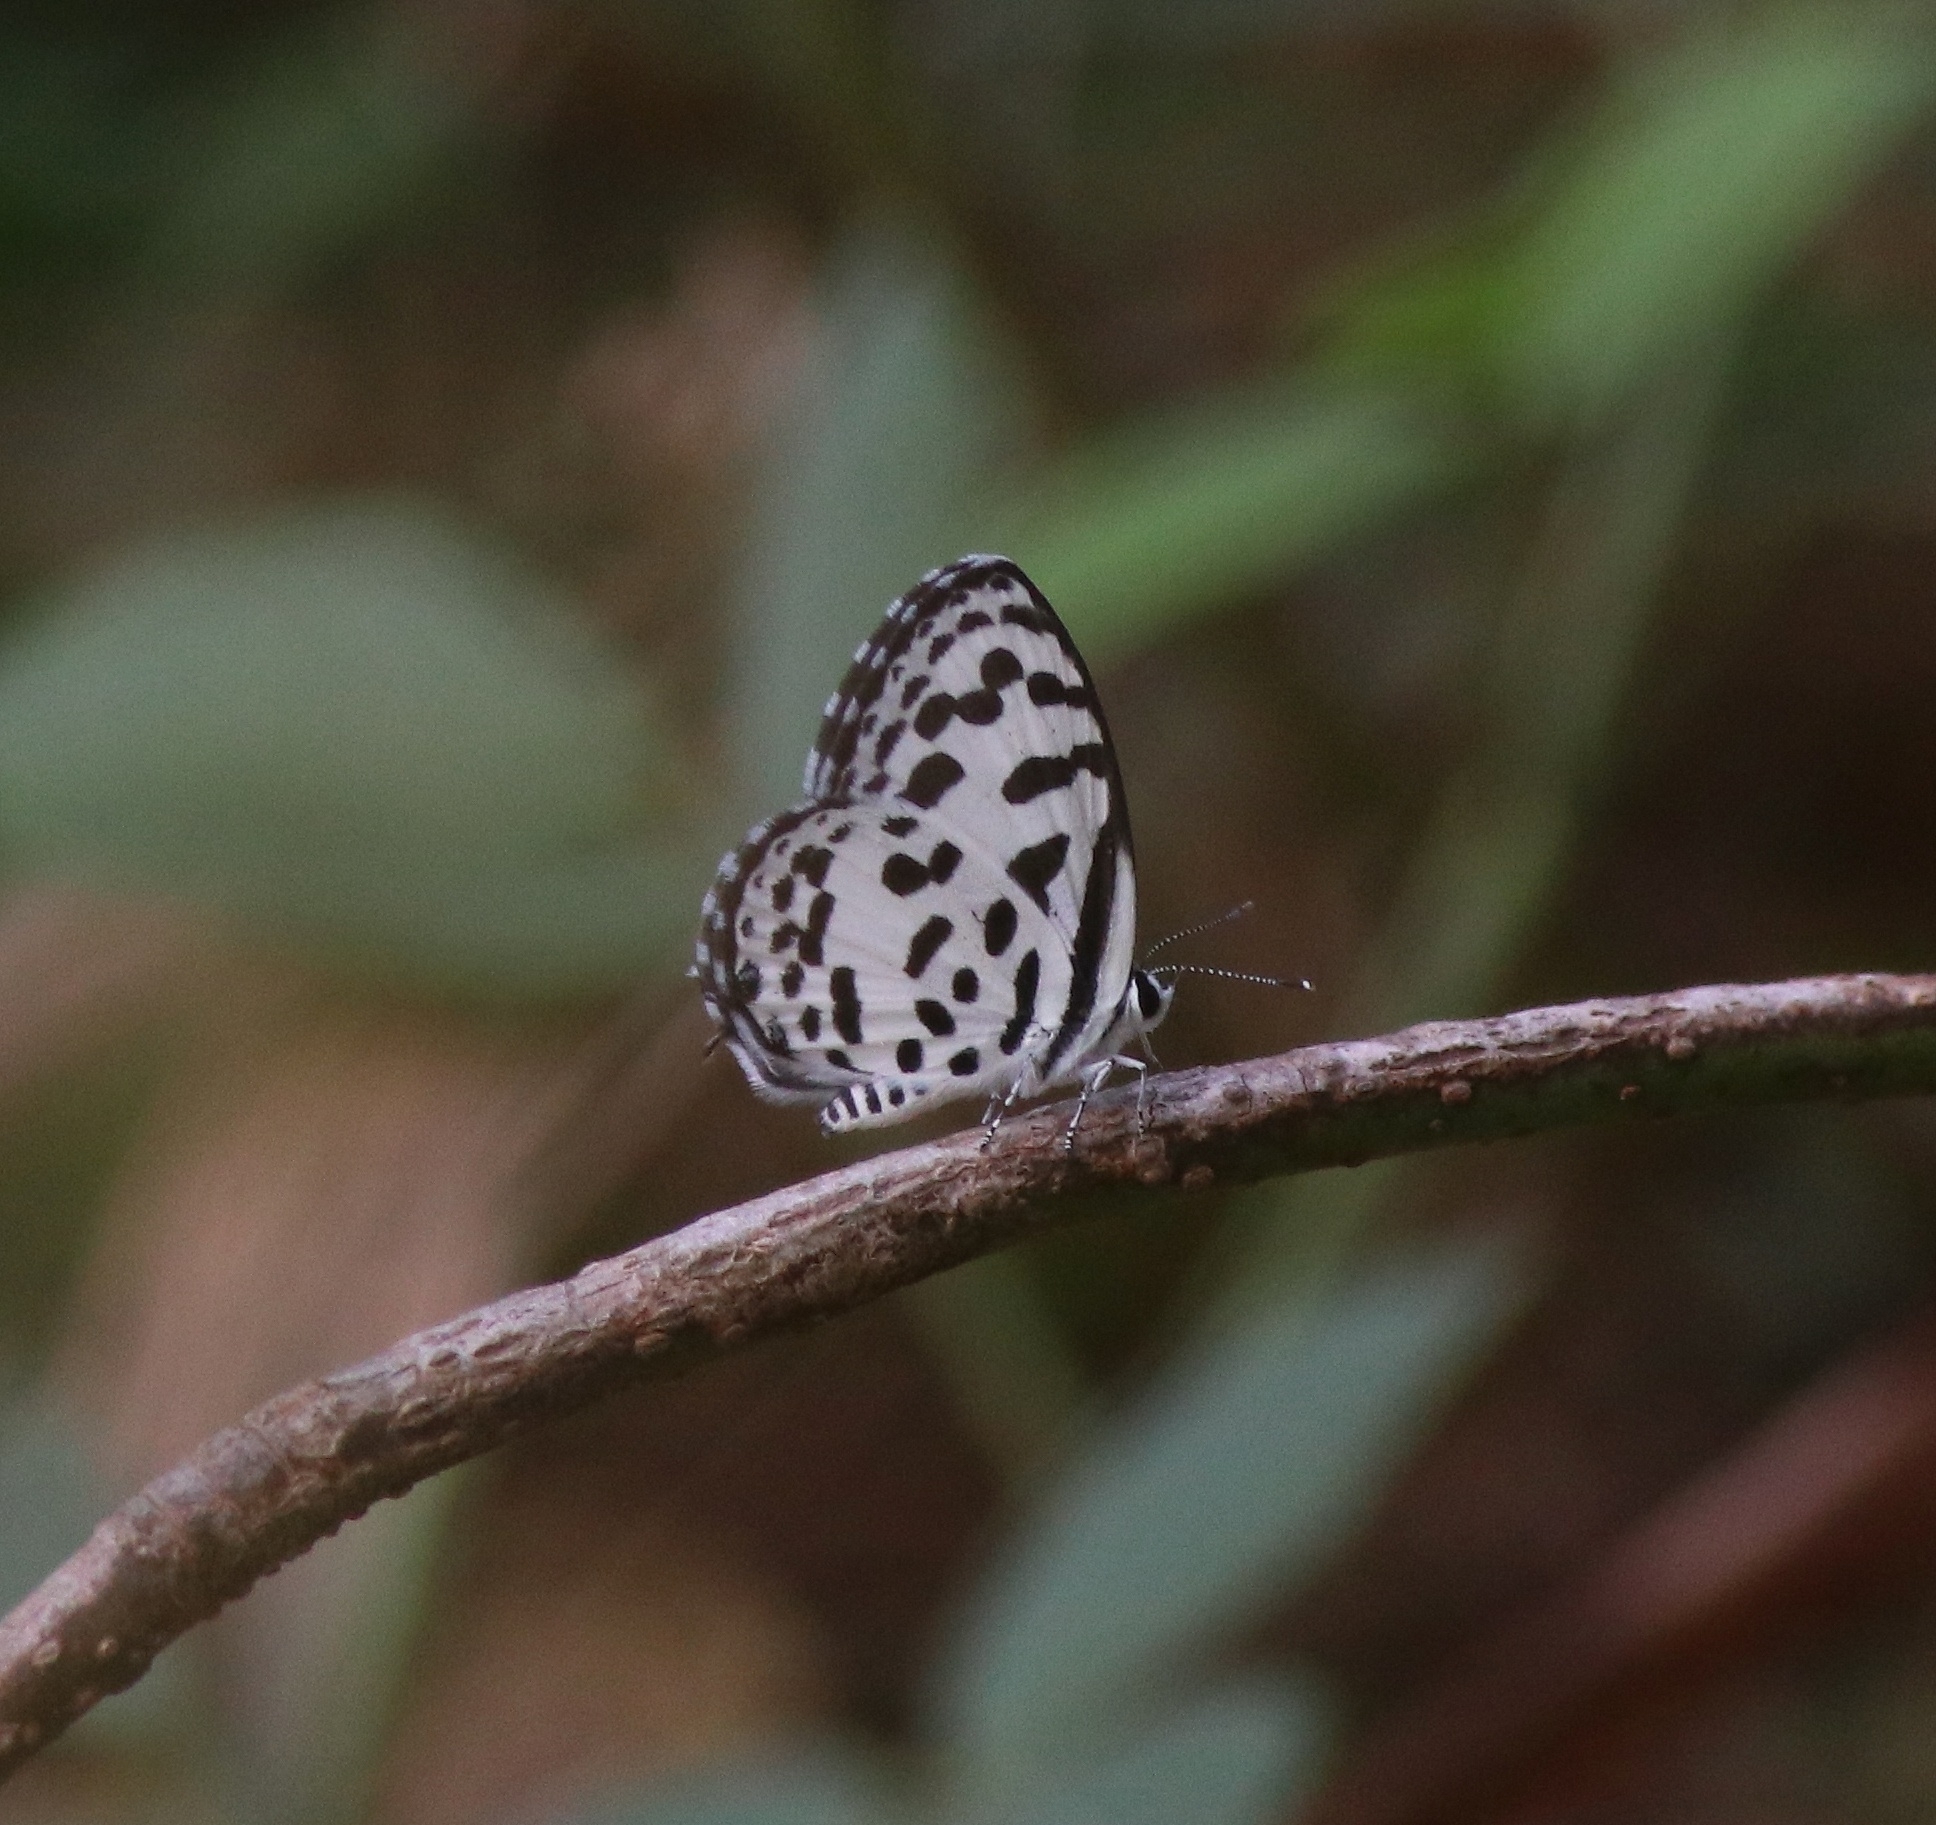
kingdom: Animalia
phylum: Arthropoda
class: Insecta
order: Lepidoptera
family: Lycaenidae
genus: Castalius
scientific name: Castalius rosimon
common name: Common pierrot
